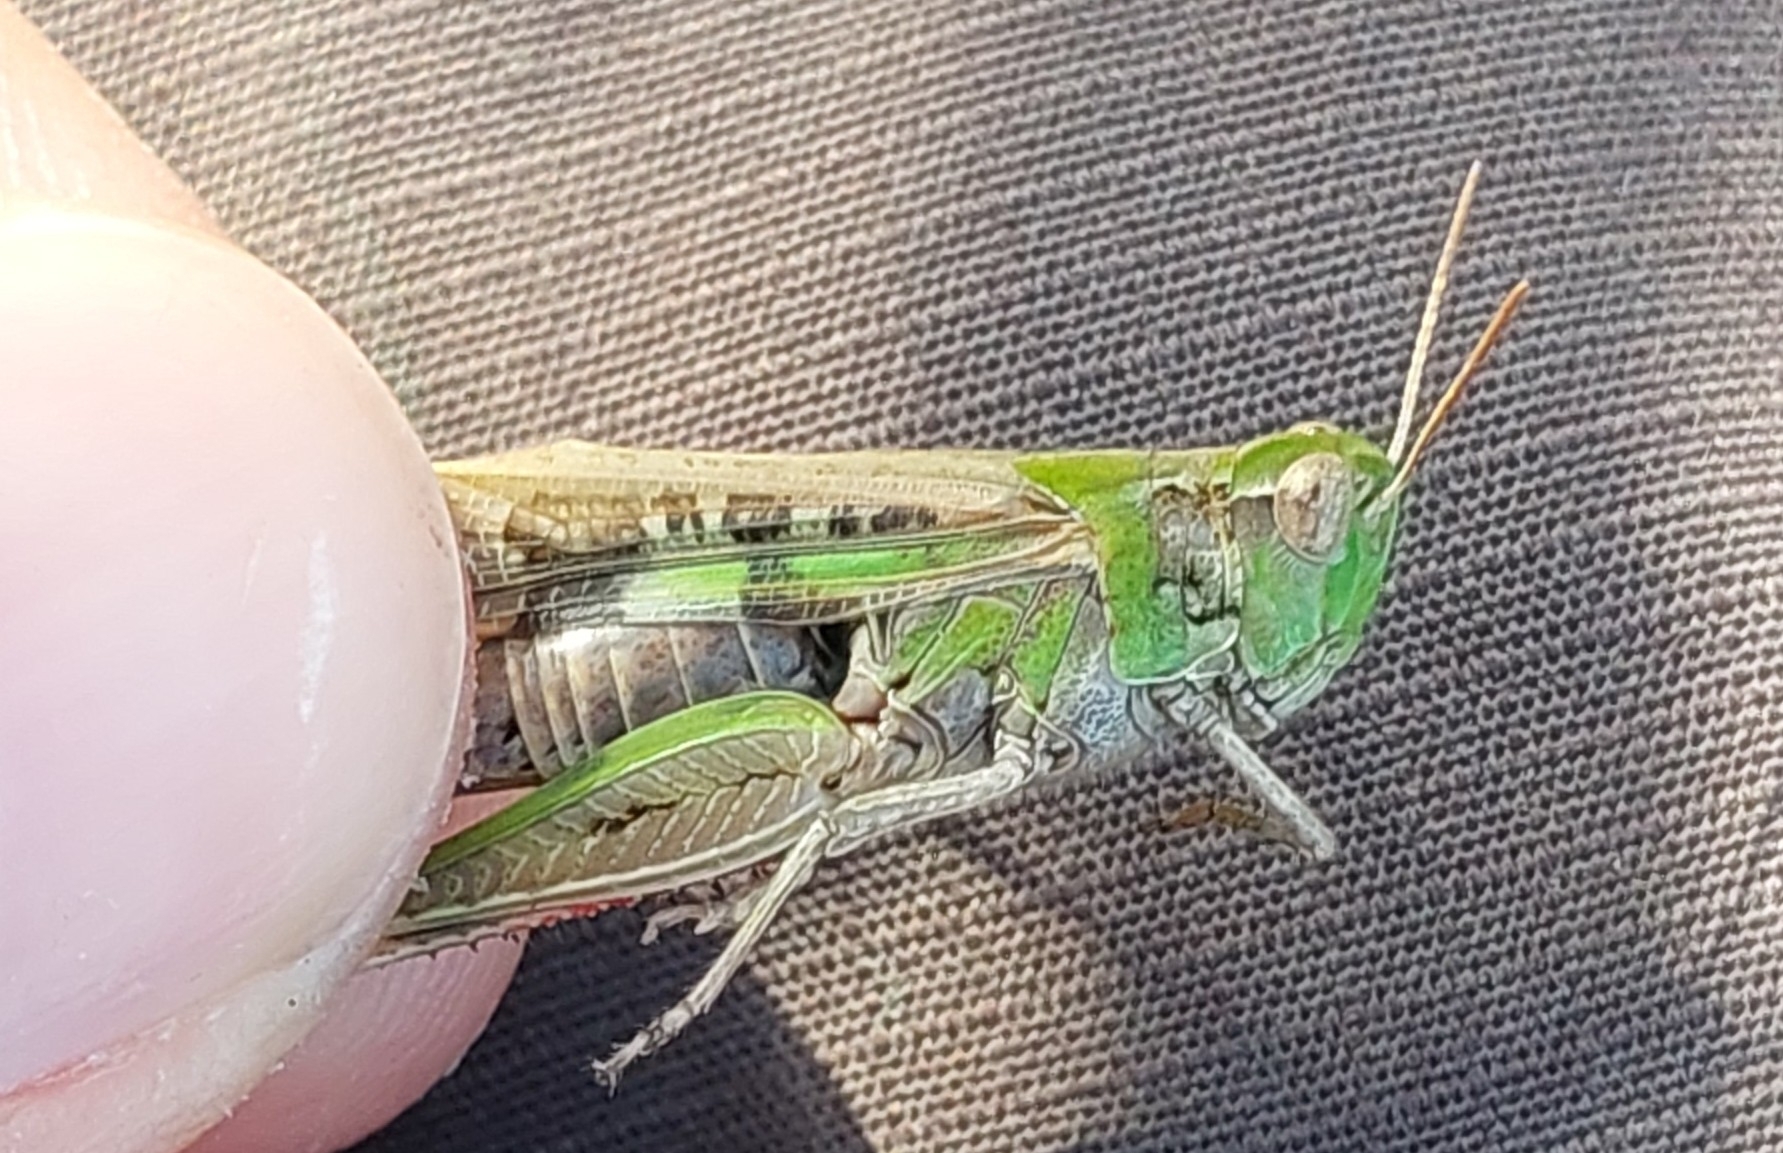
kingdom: Animalia
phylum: Arthropoda
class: Insecta
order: Orthoptera
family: Acrididae
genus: Aiolopus
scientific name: Aiolopus strepens
